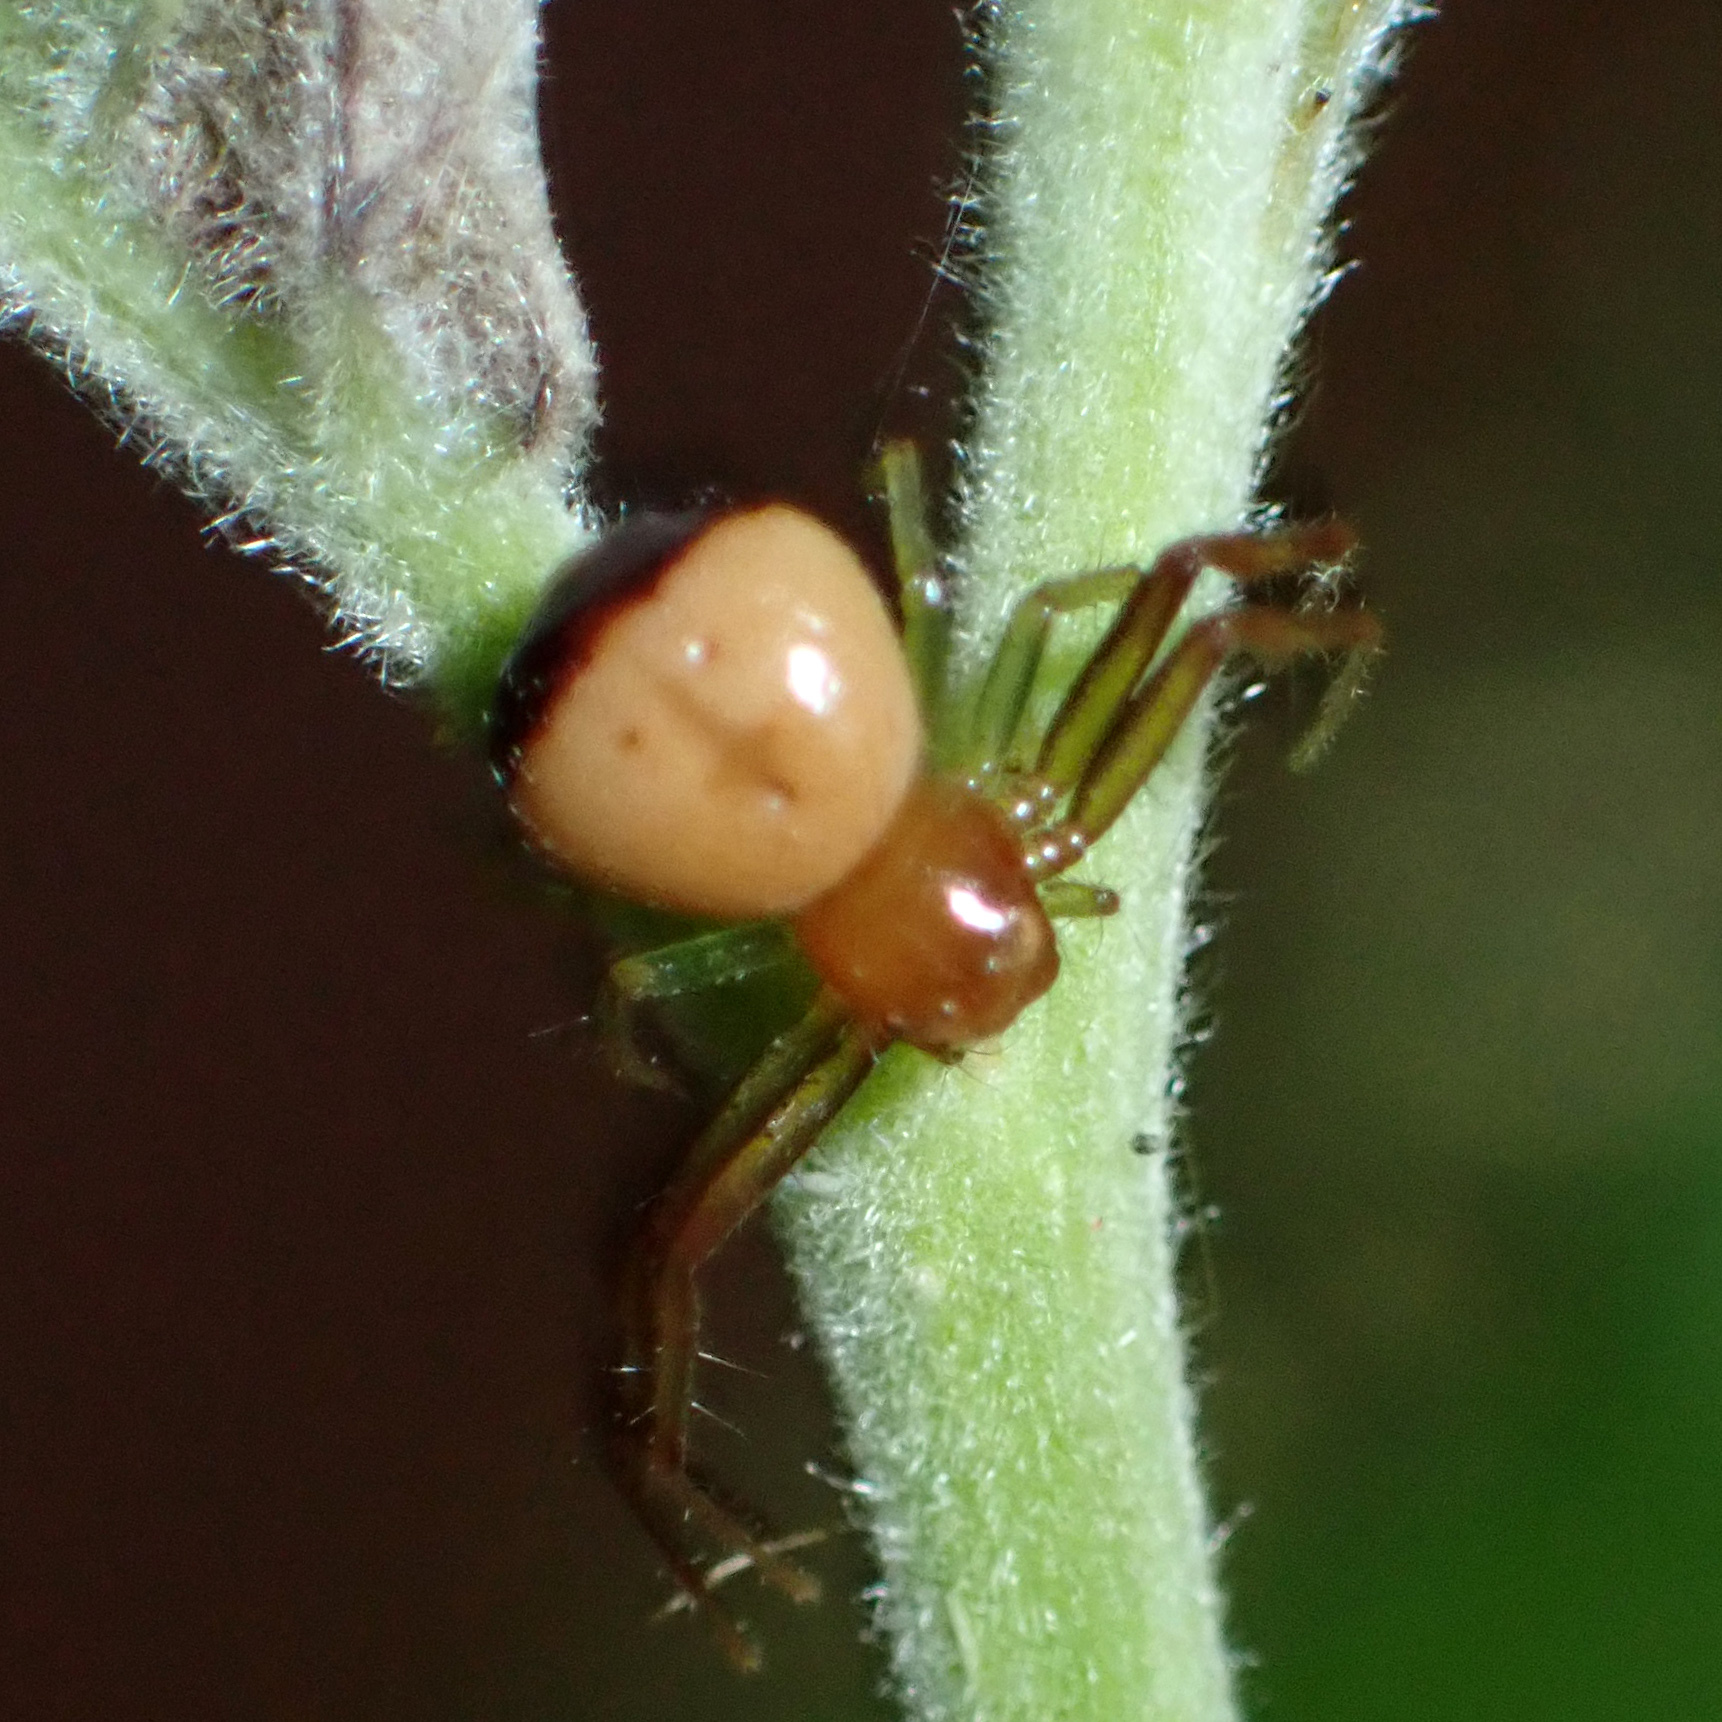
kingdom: Animalia
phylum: Arthropoda
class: Arachnida
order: Araneae
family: Thomisidae
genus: Synema
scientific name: Synema parvulum
